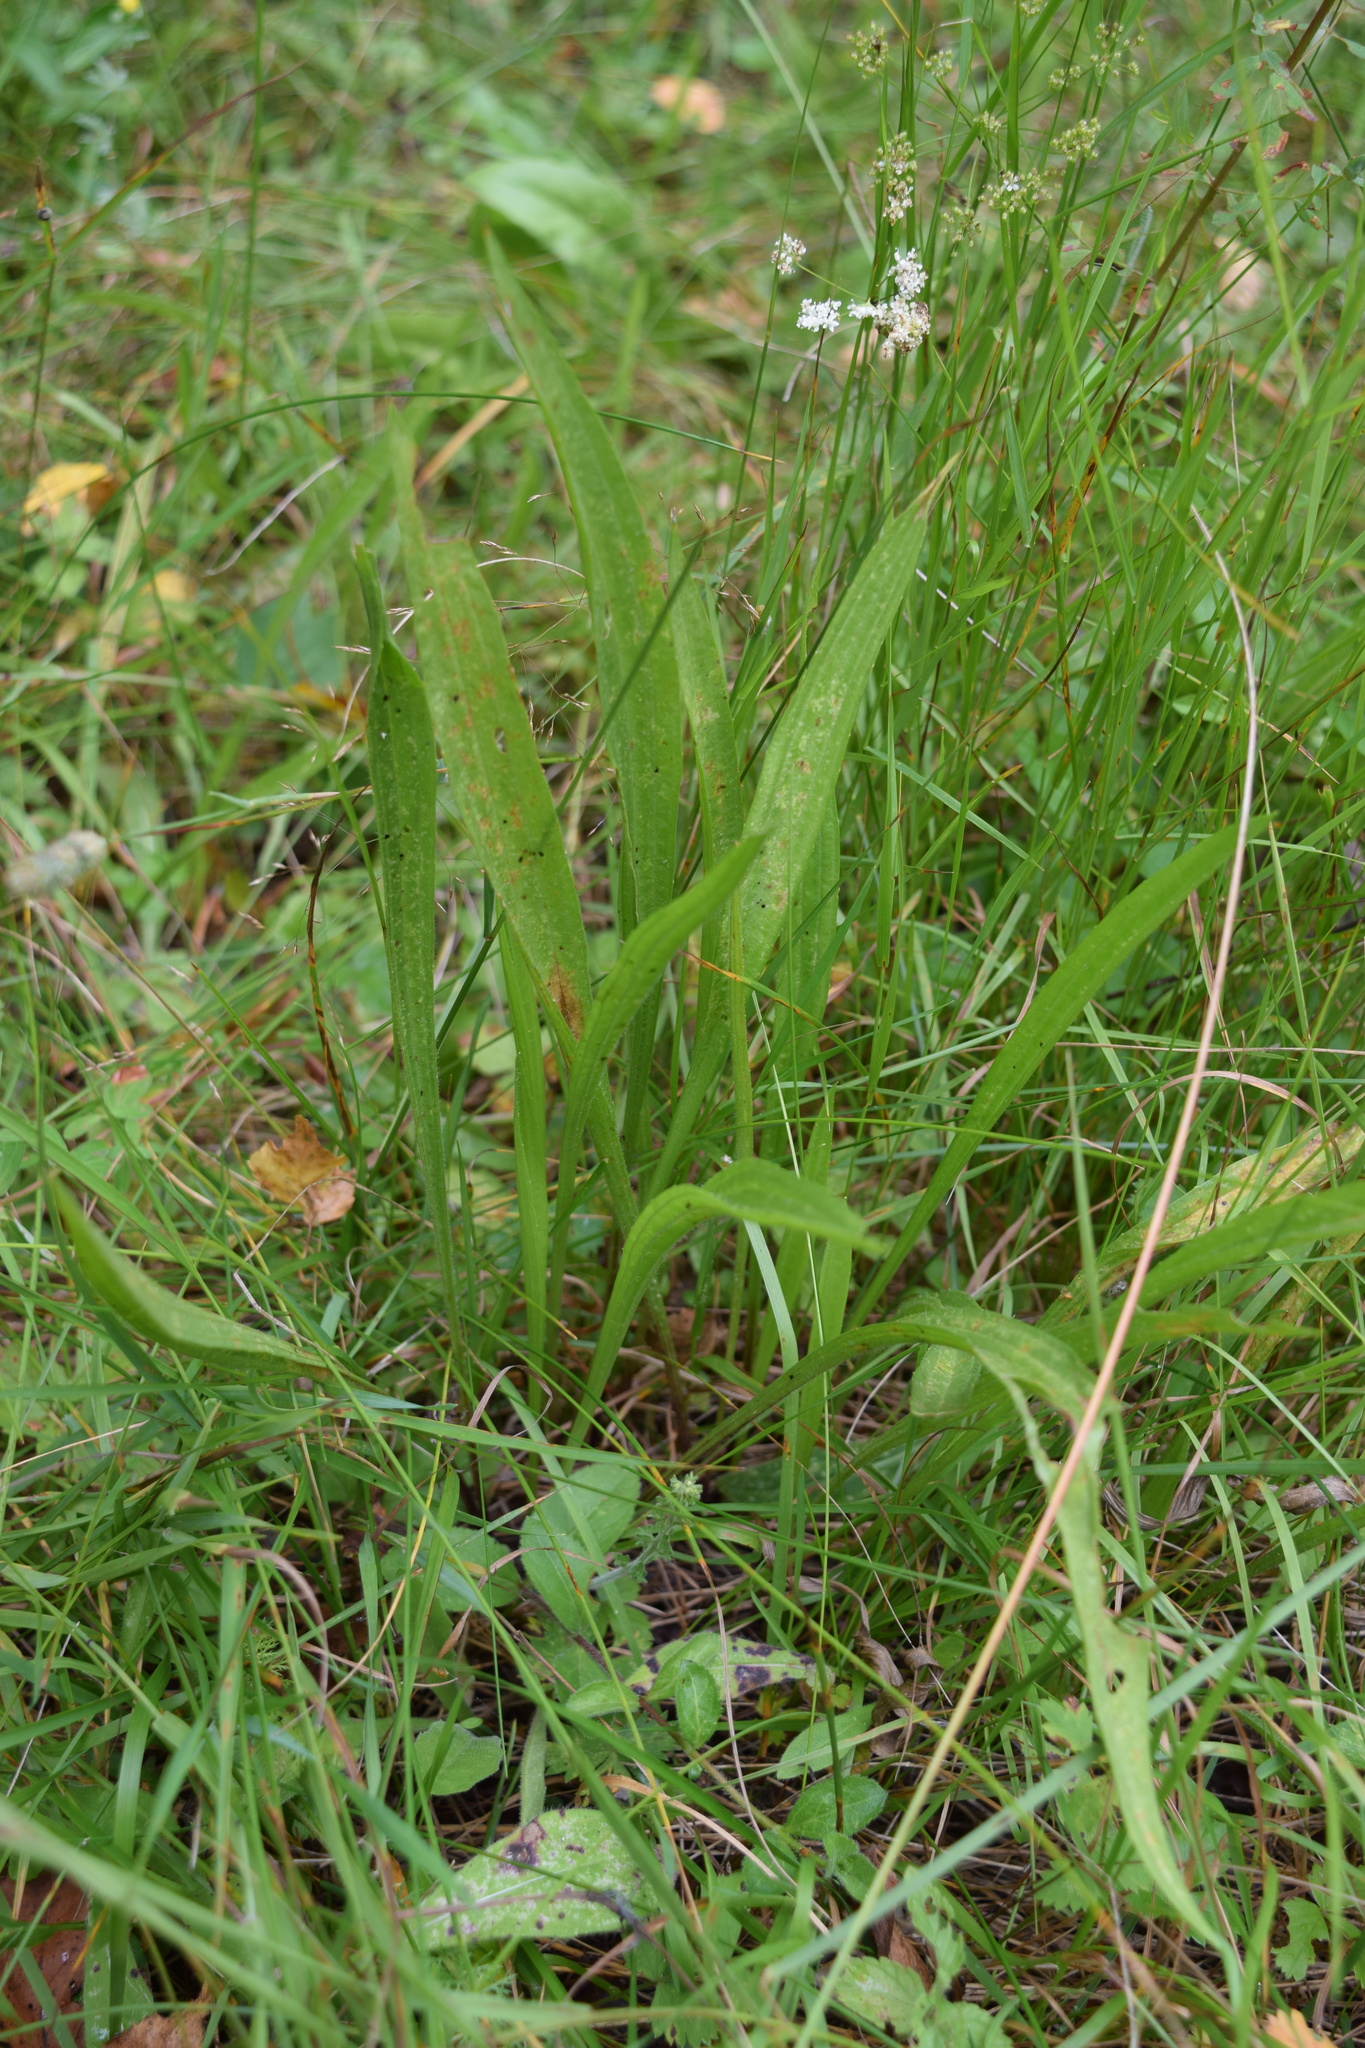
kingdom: Plantae
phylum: Tracheophyta
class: Magnoliopsida
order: Lamiales
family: Plantaginaceae
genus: Plantago
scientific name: Plantago lanceolata
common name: Ribwort plantain
